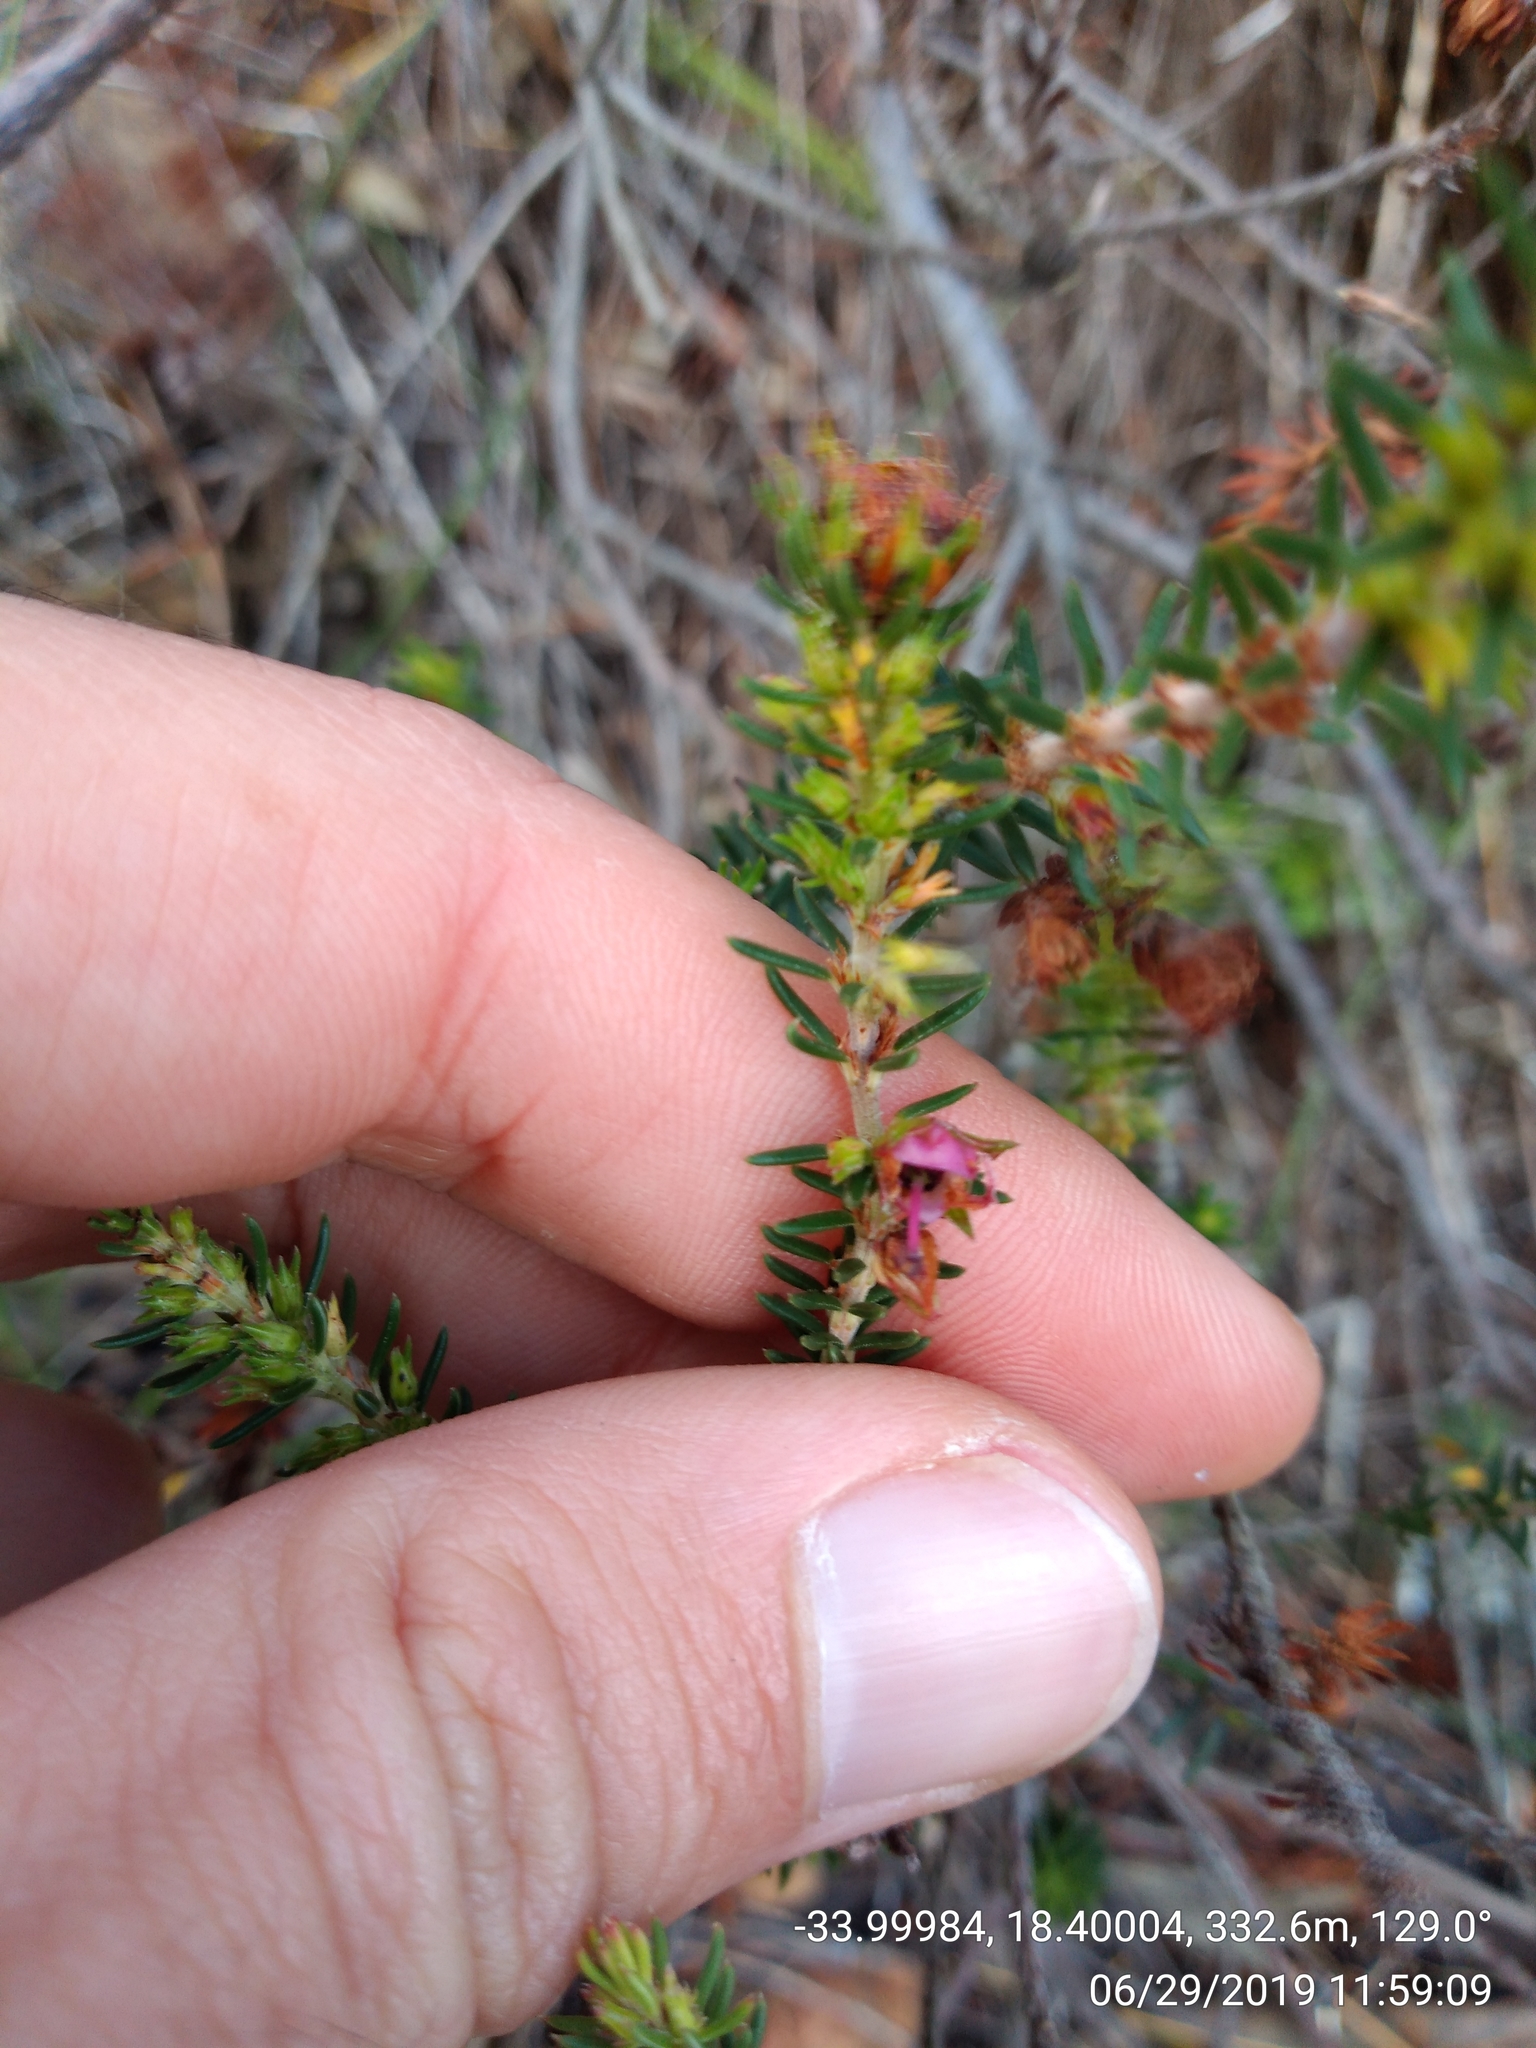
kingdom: Plantae
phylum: Tracheophyta
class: Magnoliopsida
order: Ericales
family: Ericaceae
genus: Erica
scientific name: Erica abietina
